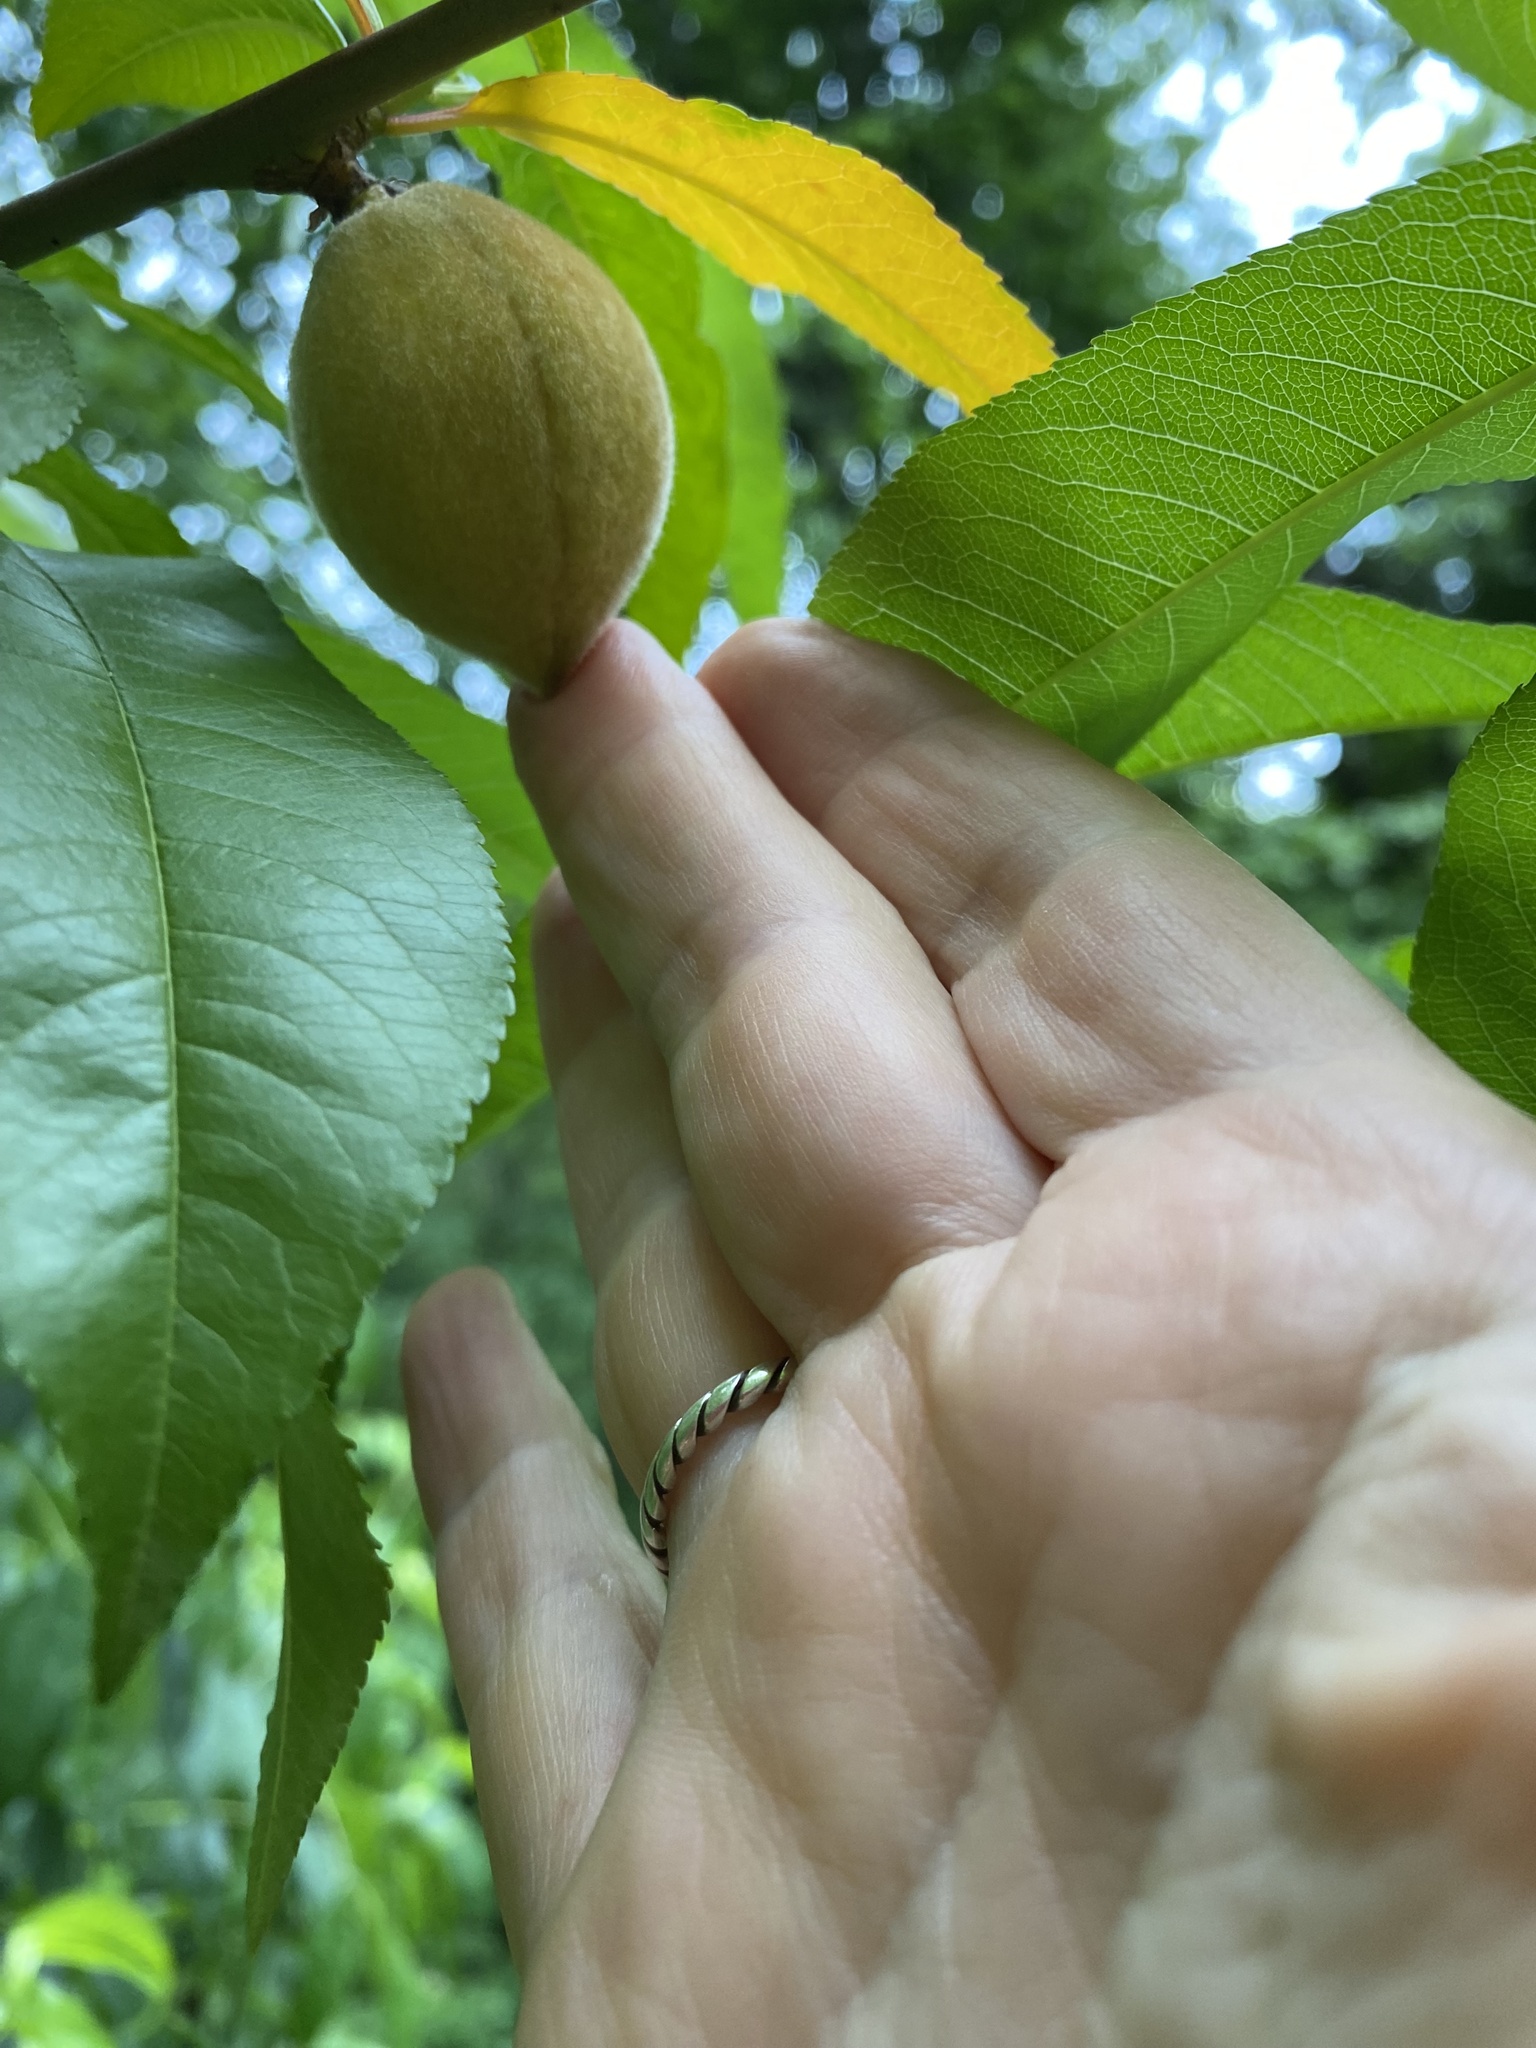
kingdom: Plantae
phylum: Tracheophyta
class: Magnoliopsida
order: Rosales
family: Rosaceae
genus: Prunus
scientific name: Prunus persica
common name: Peach
